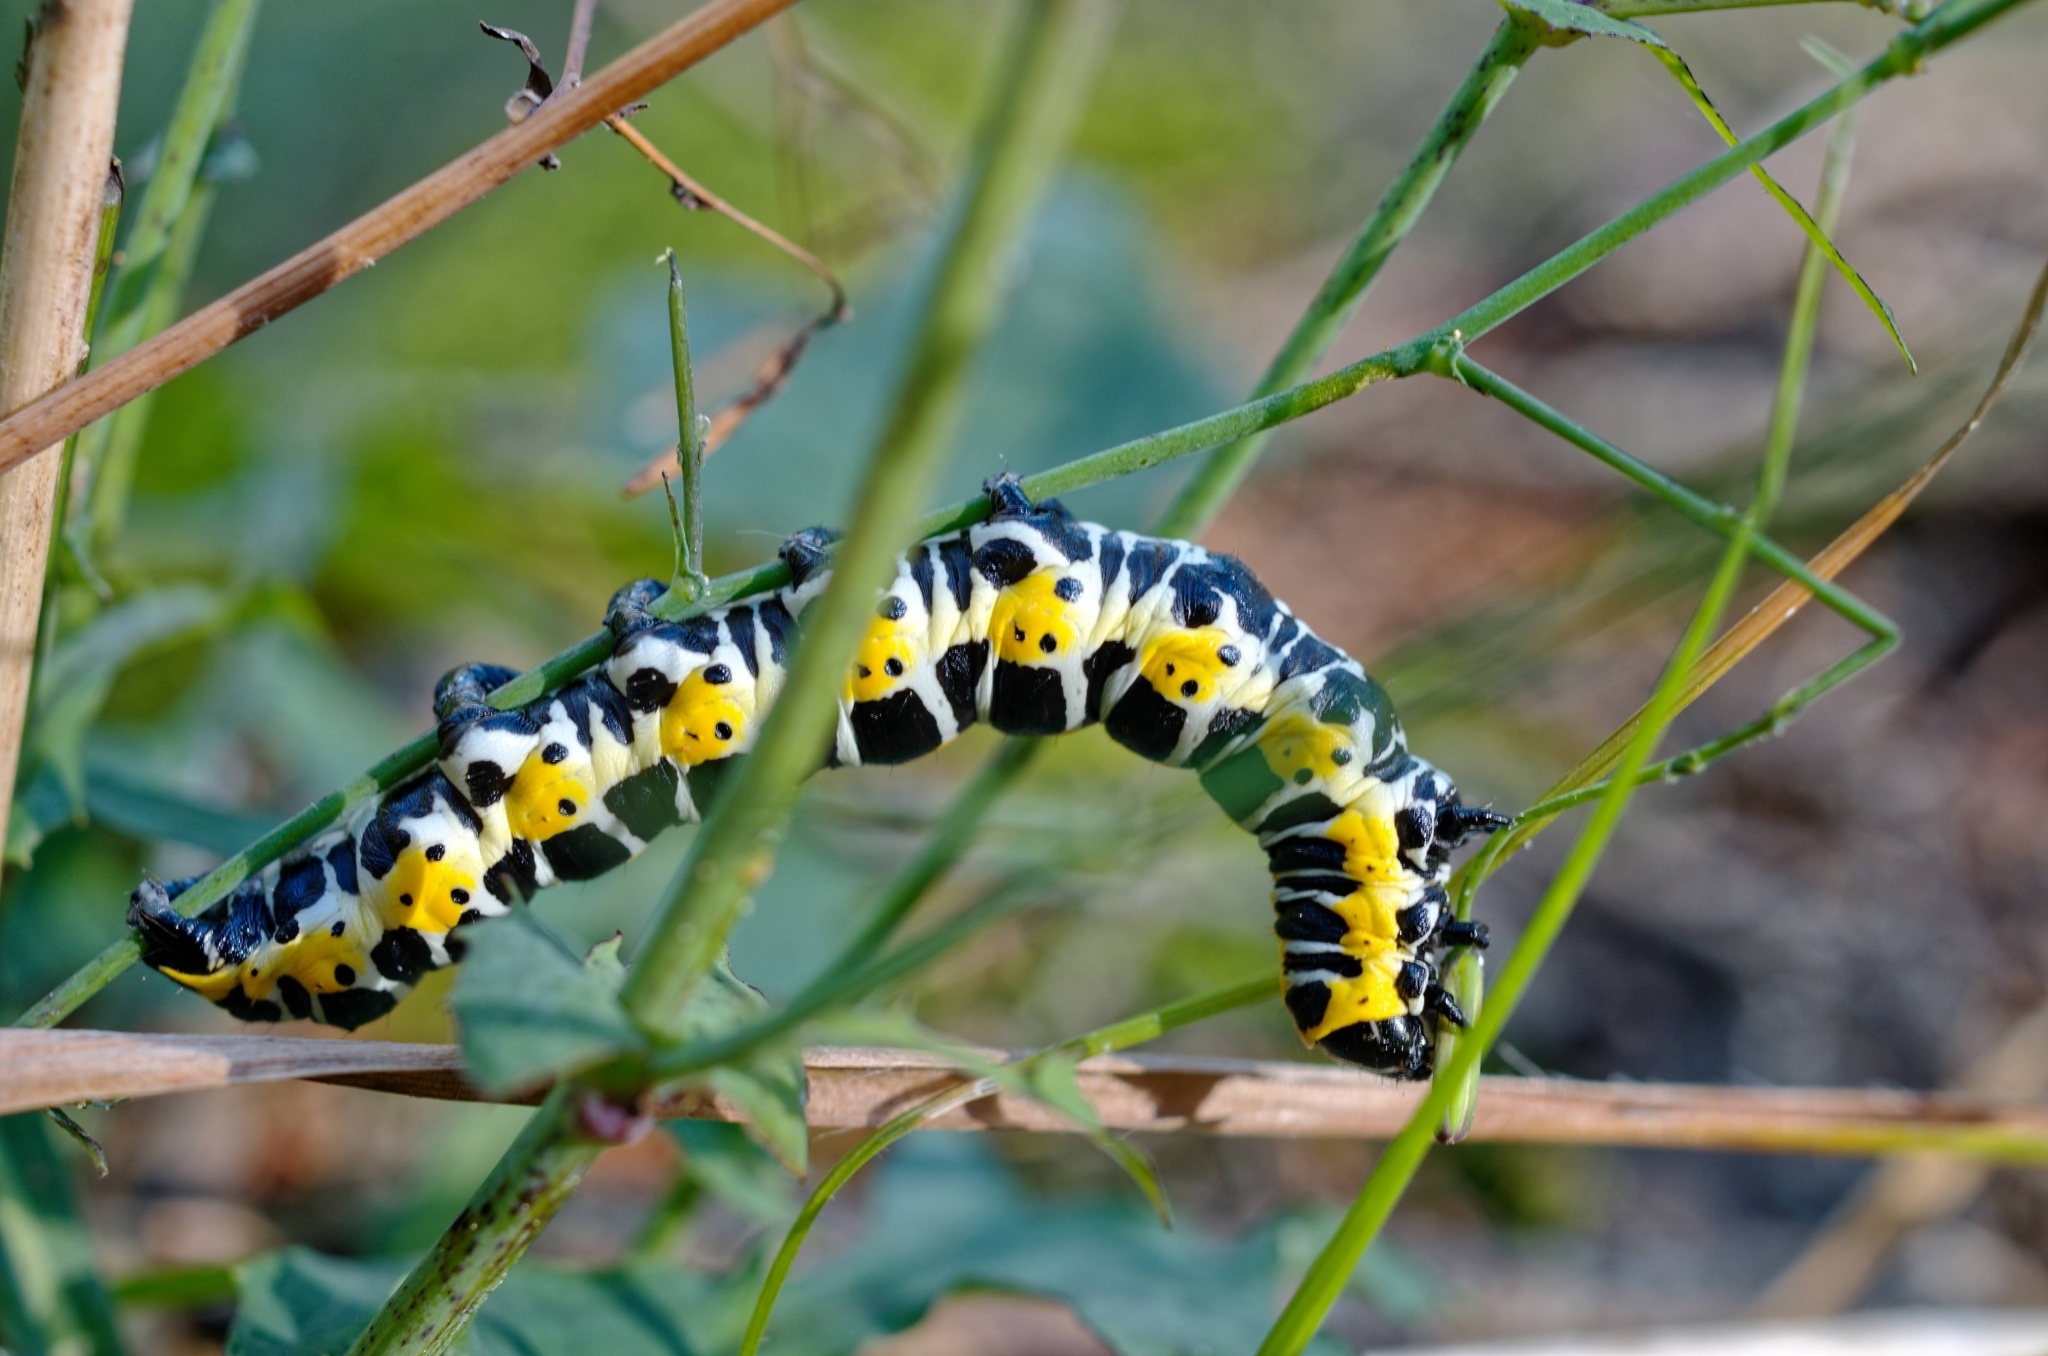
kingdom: Animalia
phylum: Arthropoda
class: Insecta
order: Lepidoptera
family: Noctuidae
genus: Cucullia
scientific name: Cucullia lactucae
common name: Lettuce shark
